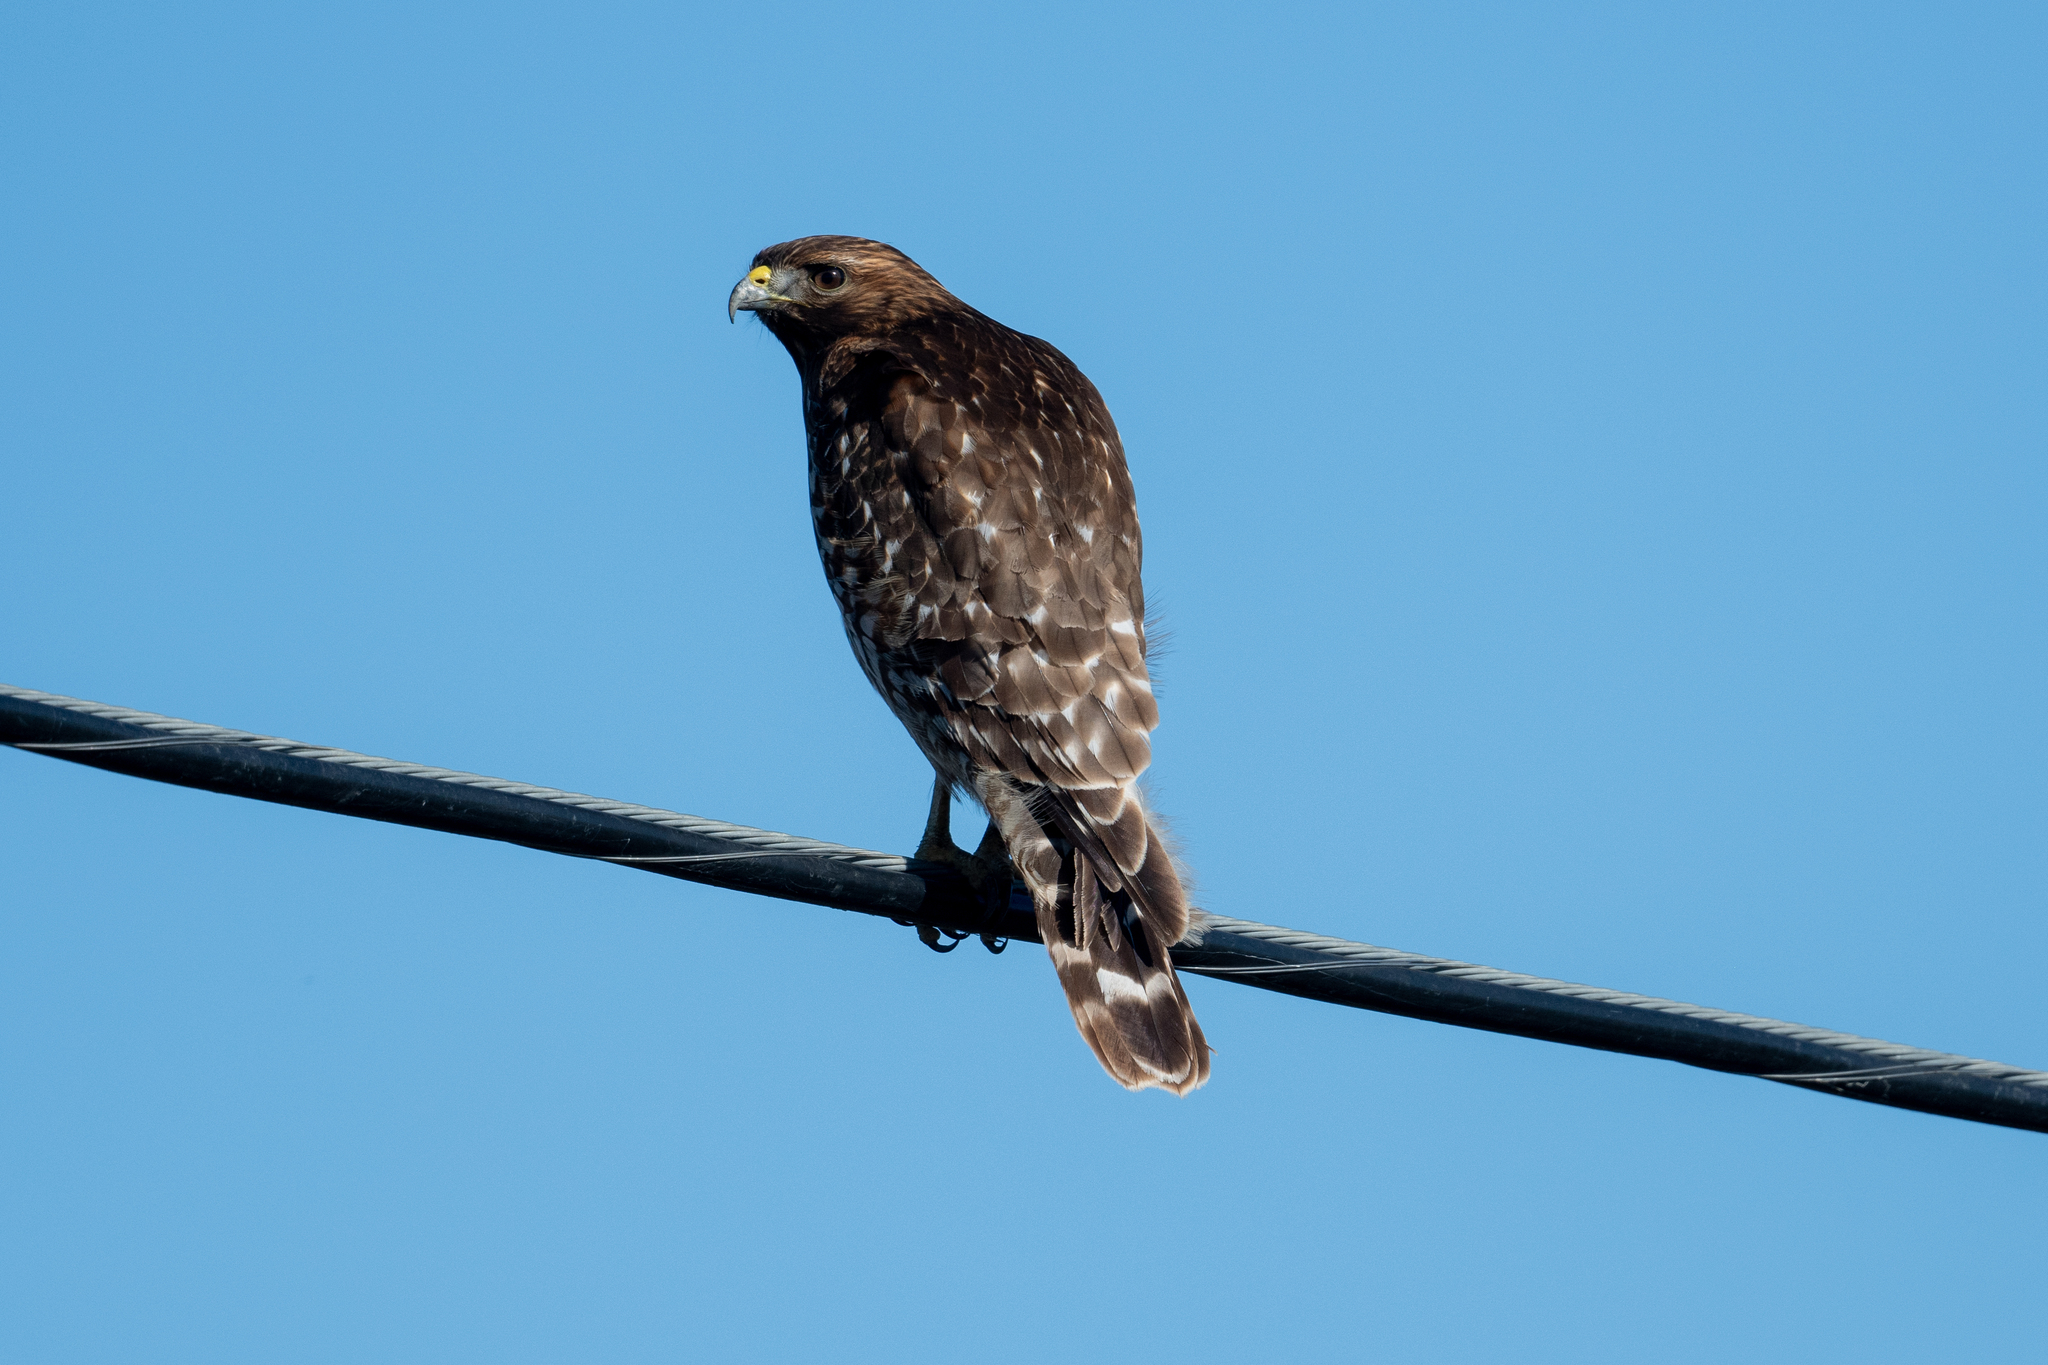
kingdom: Animalia
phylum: Chordata
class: Aves
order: Accipitriformes
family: Accipitridae
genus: Buteo
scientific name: Buteo lineatus
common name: Red-shouldered hawk
